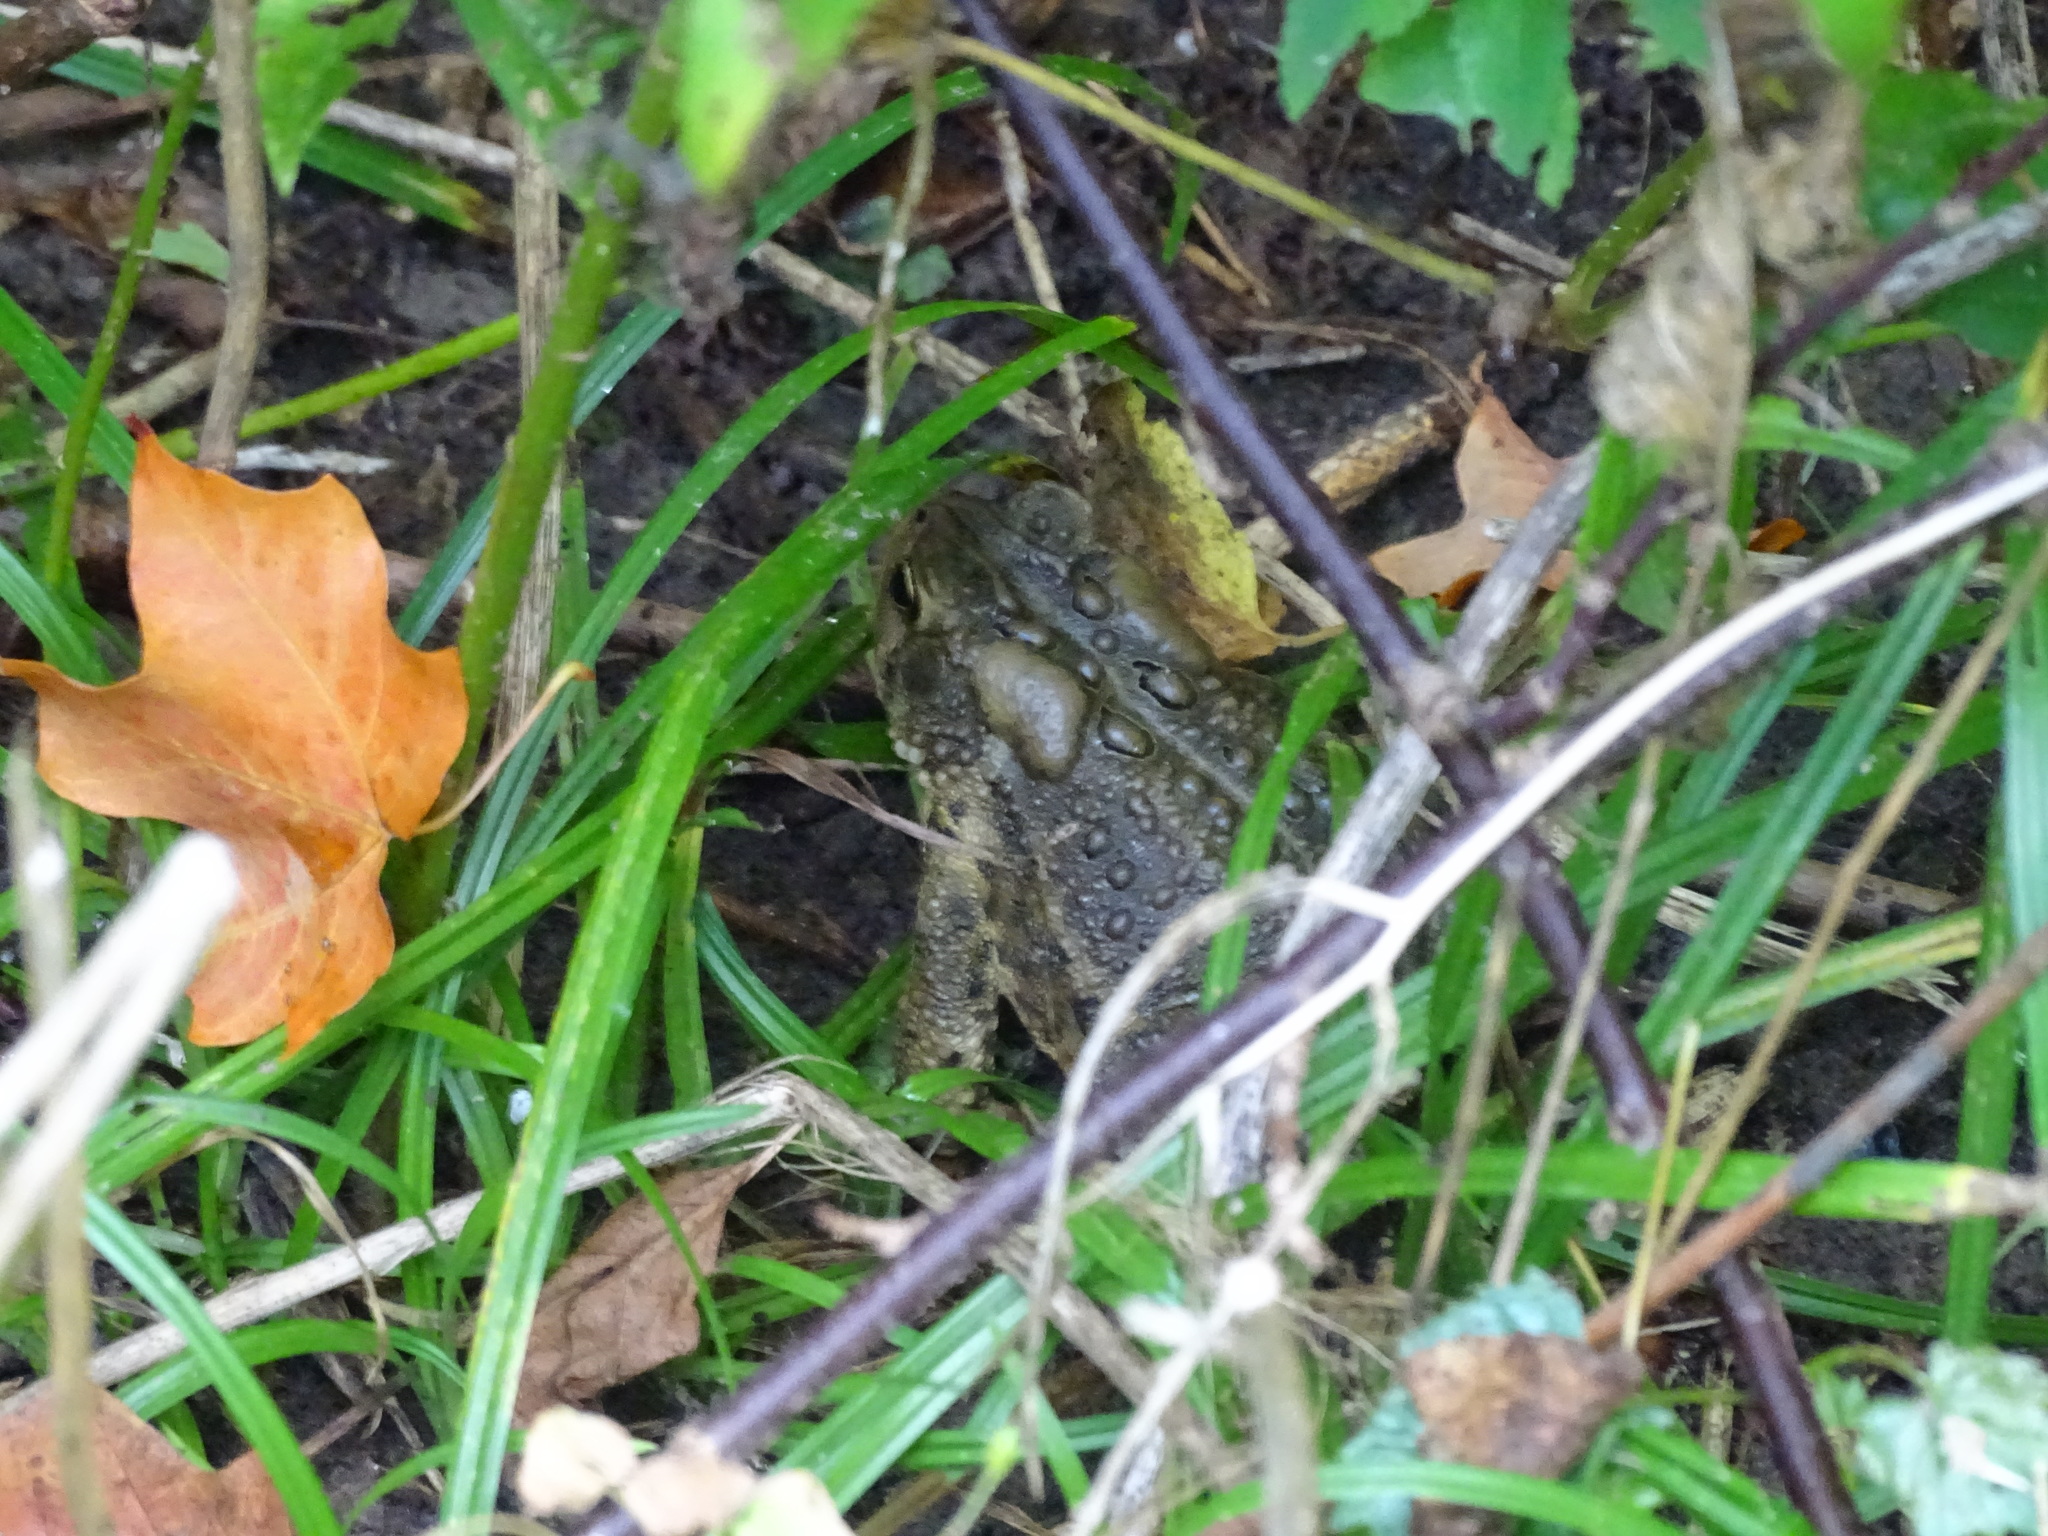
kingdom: Animalia
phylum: Chordata
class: Amphibia
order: Anura
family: Bufonidae
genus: Anaxyrus
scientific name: Anaxyrus americanus
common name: American toad
